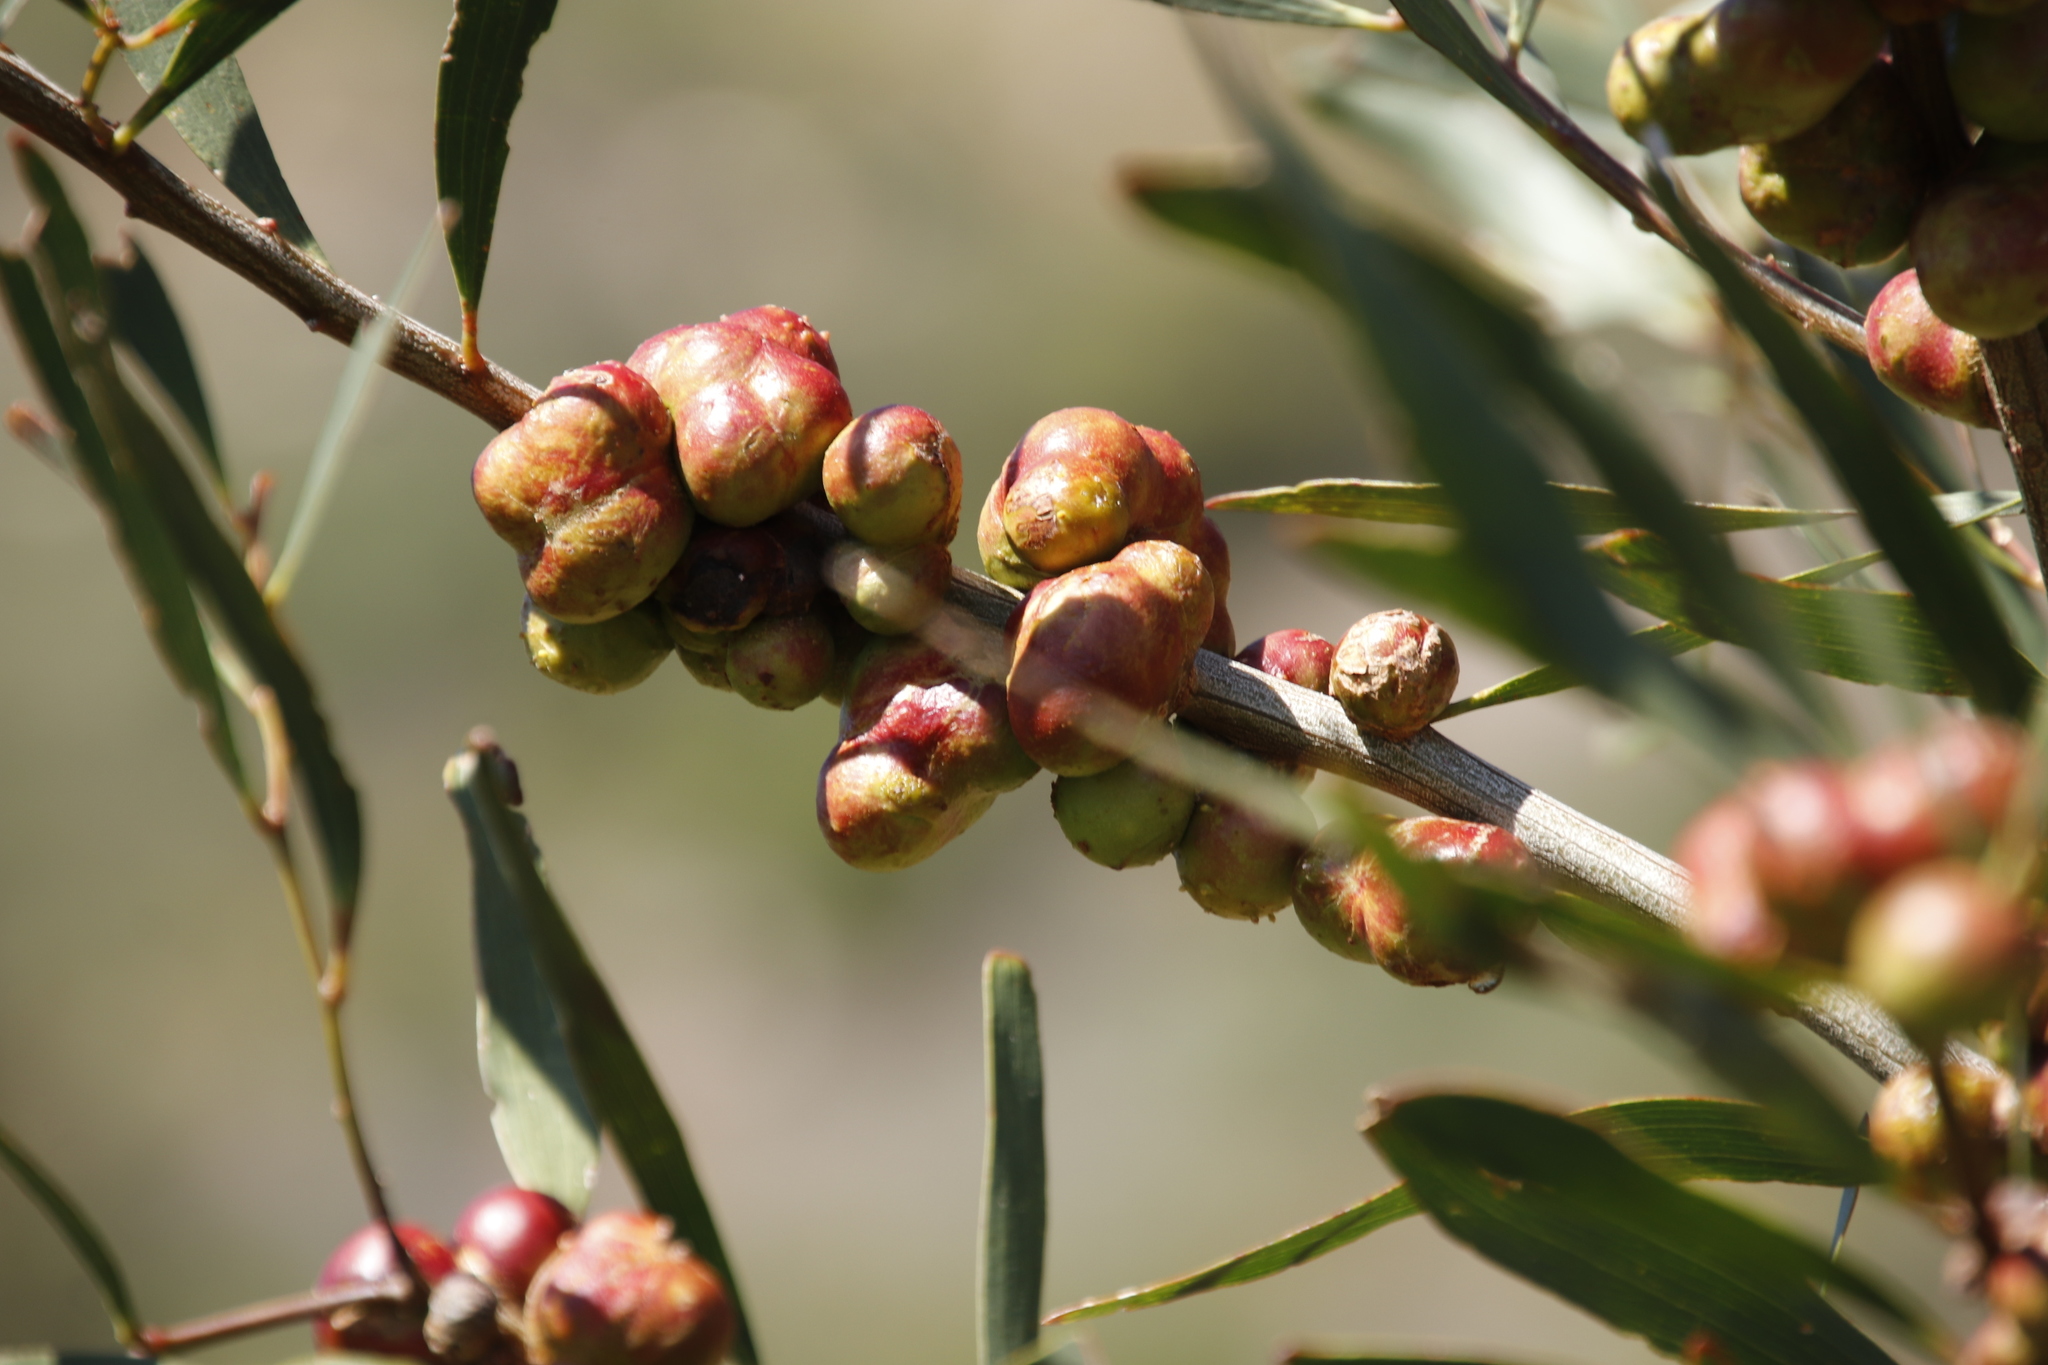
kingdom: Animalia
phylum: Arthropoda
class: Insecta
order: Hymenoptera
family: Pteromalidae
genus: Trichilogaster
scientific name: Trichilogaster acaciaelongifoliae
